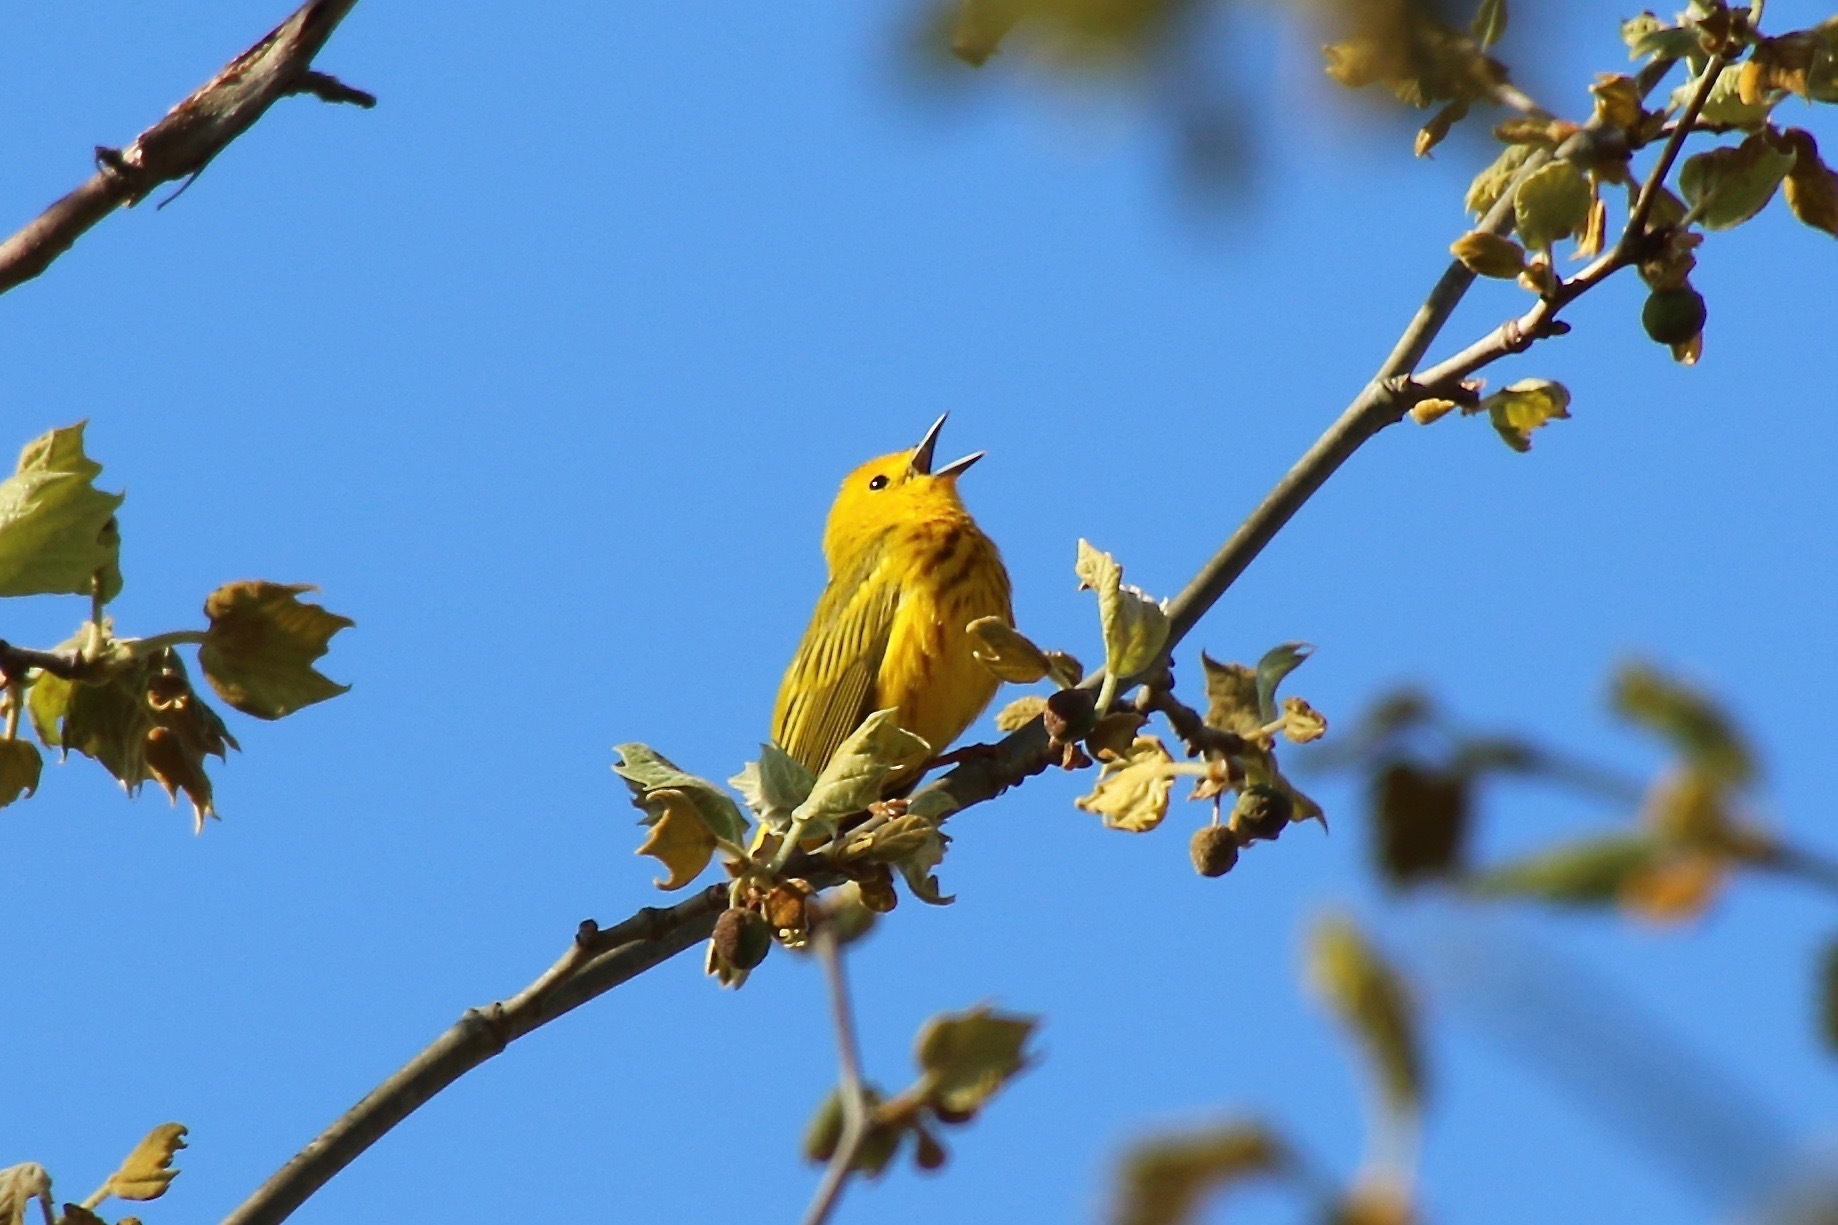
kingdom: Animalia
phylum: Chordata
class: Aves
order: Passeriformes
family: Parulidae
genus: Setophaga
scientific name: Setophaga petechia
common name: Yellow warbler
